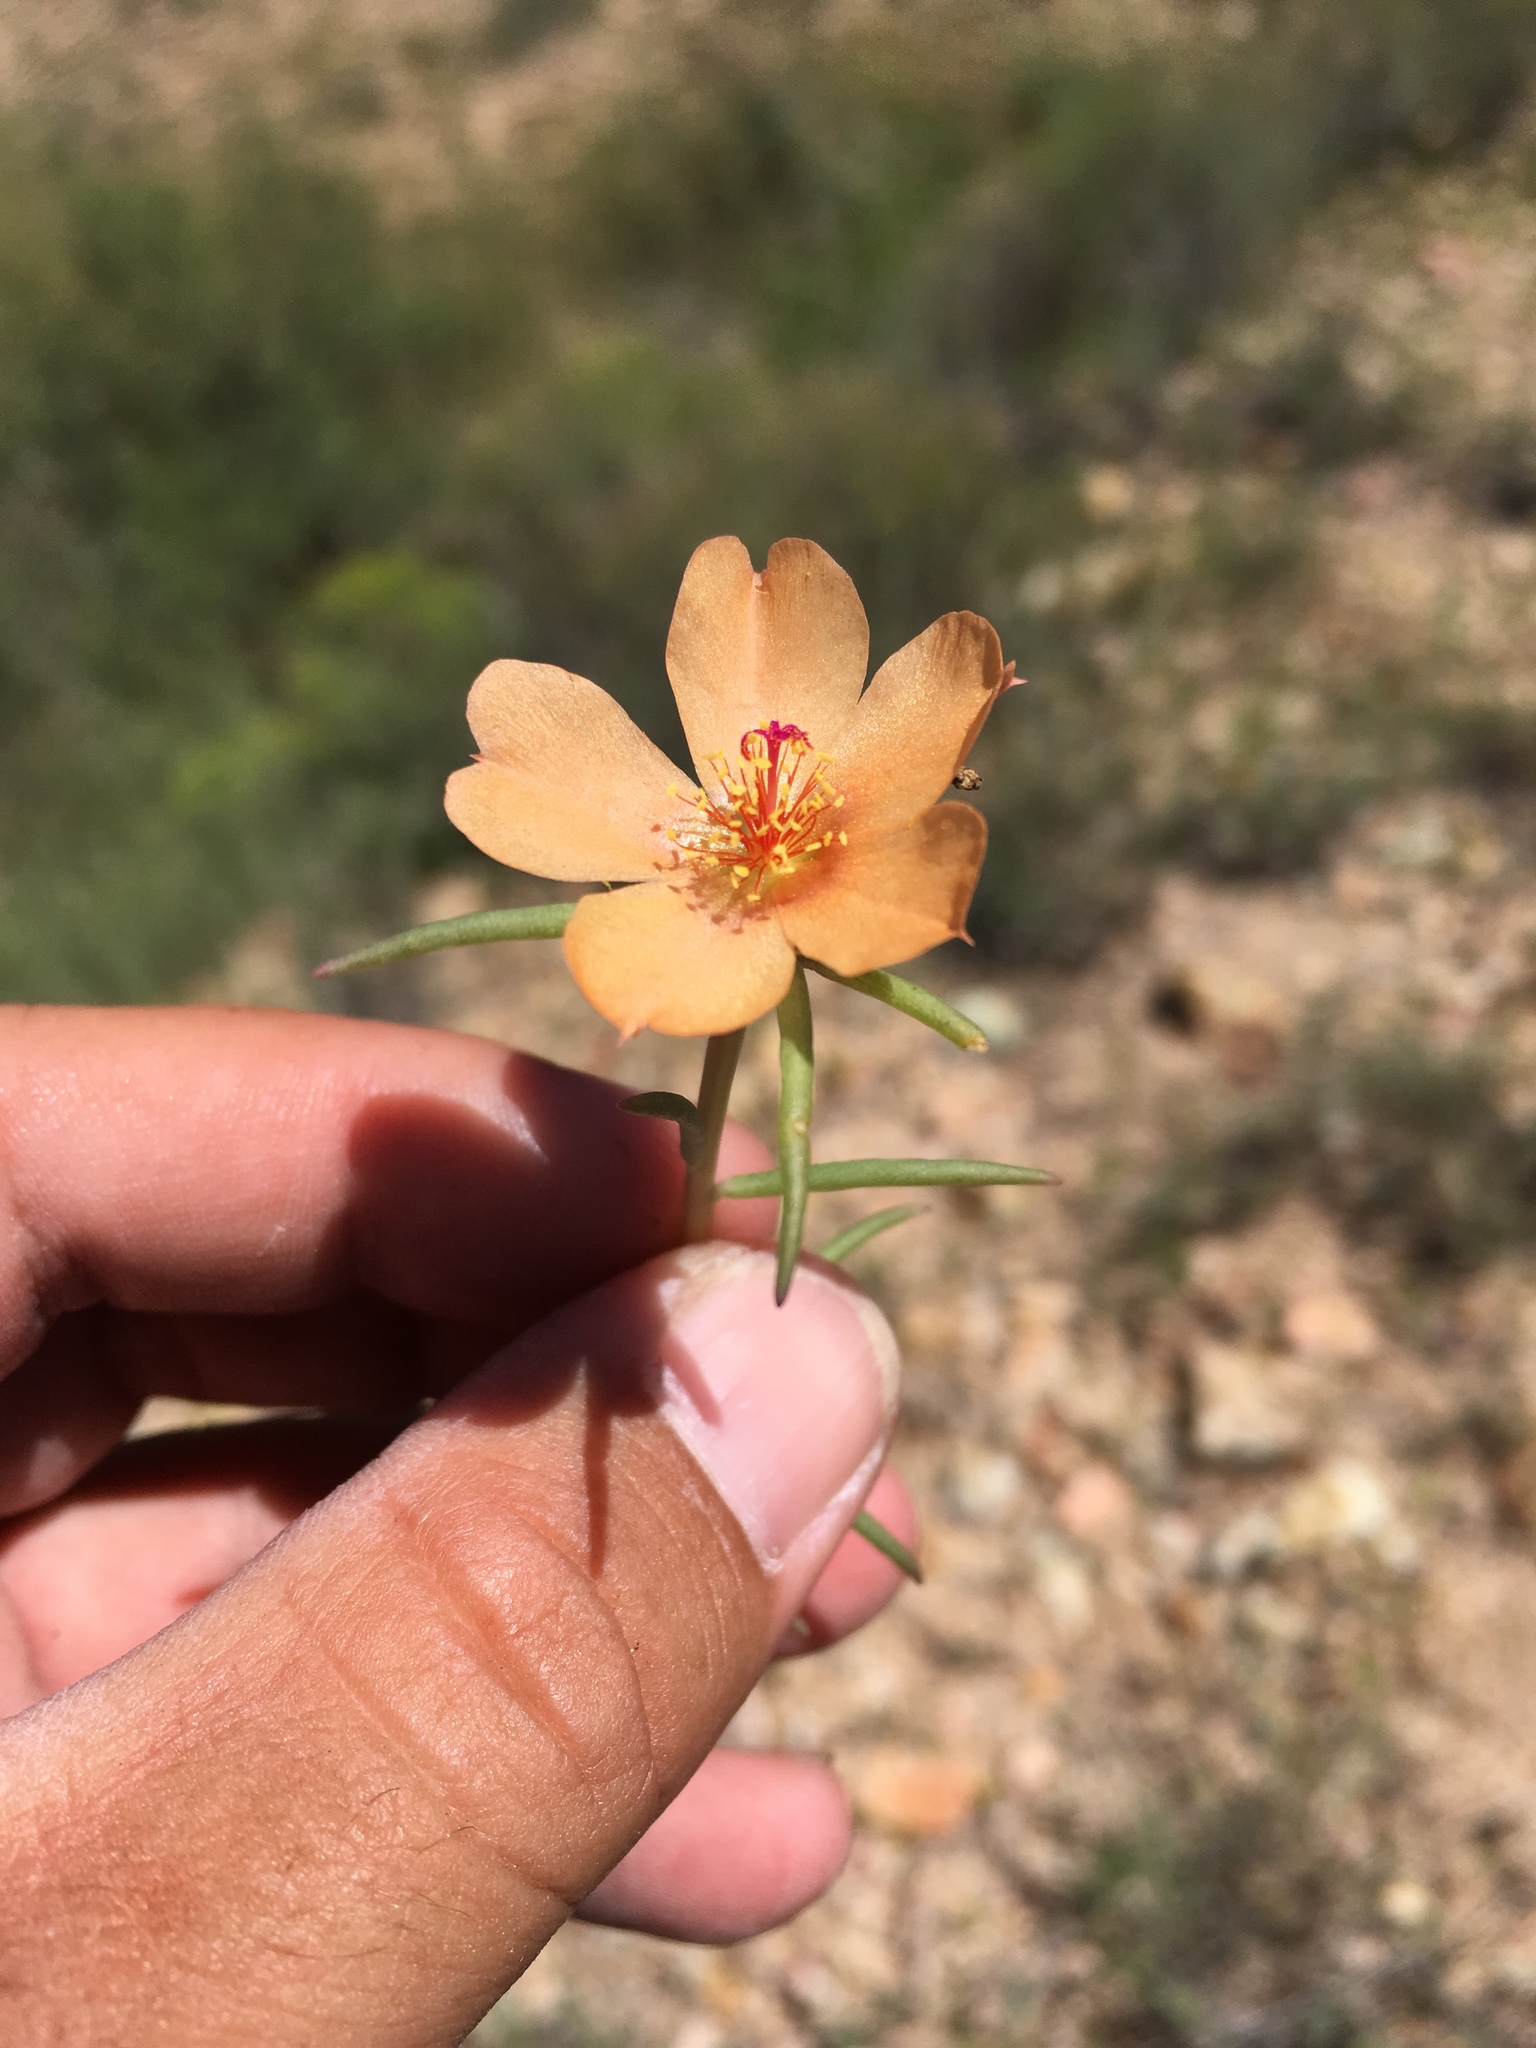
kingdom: Plantae
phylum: Tracheophyta
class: Magnoliopsida
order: Caryophyllales
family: Portulacaceae
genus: Portulaca
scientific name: Portulaca suffrutescens
